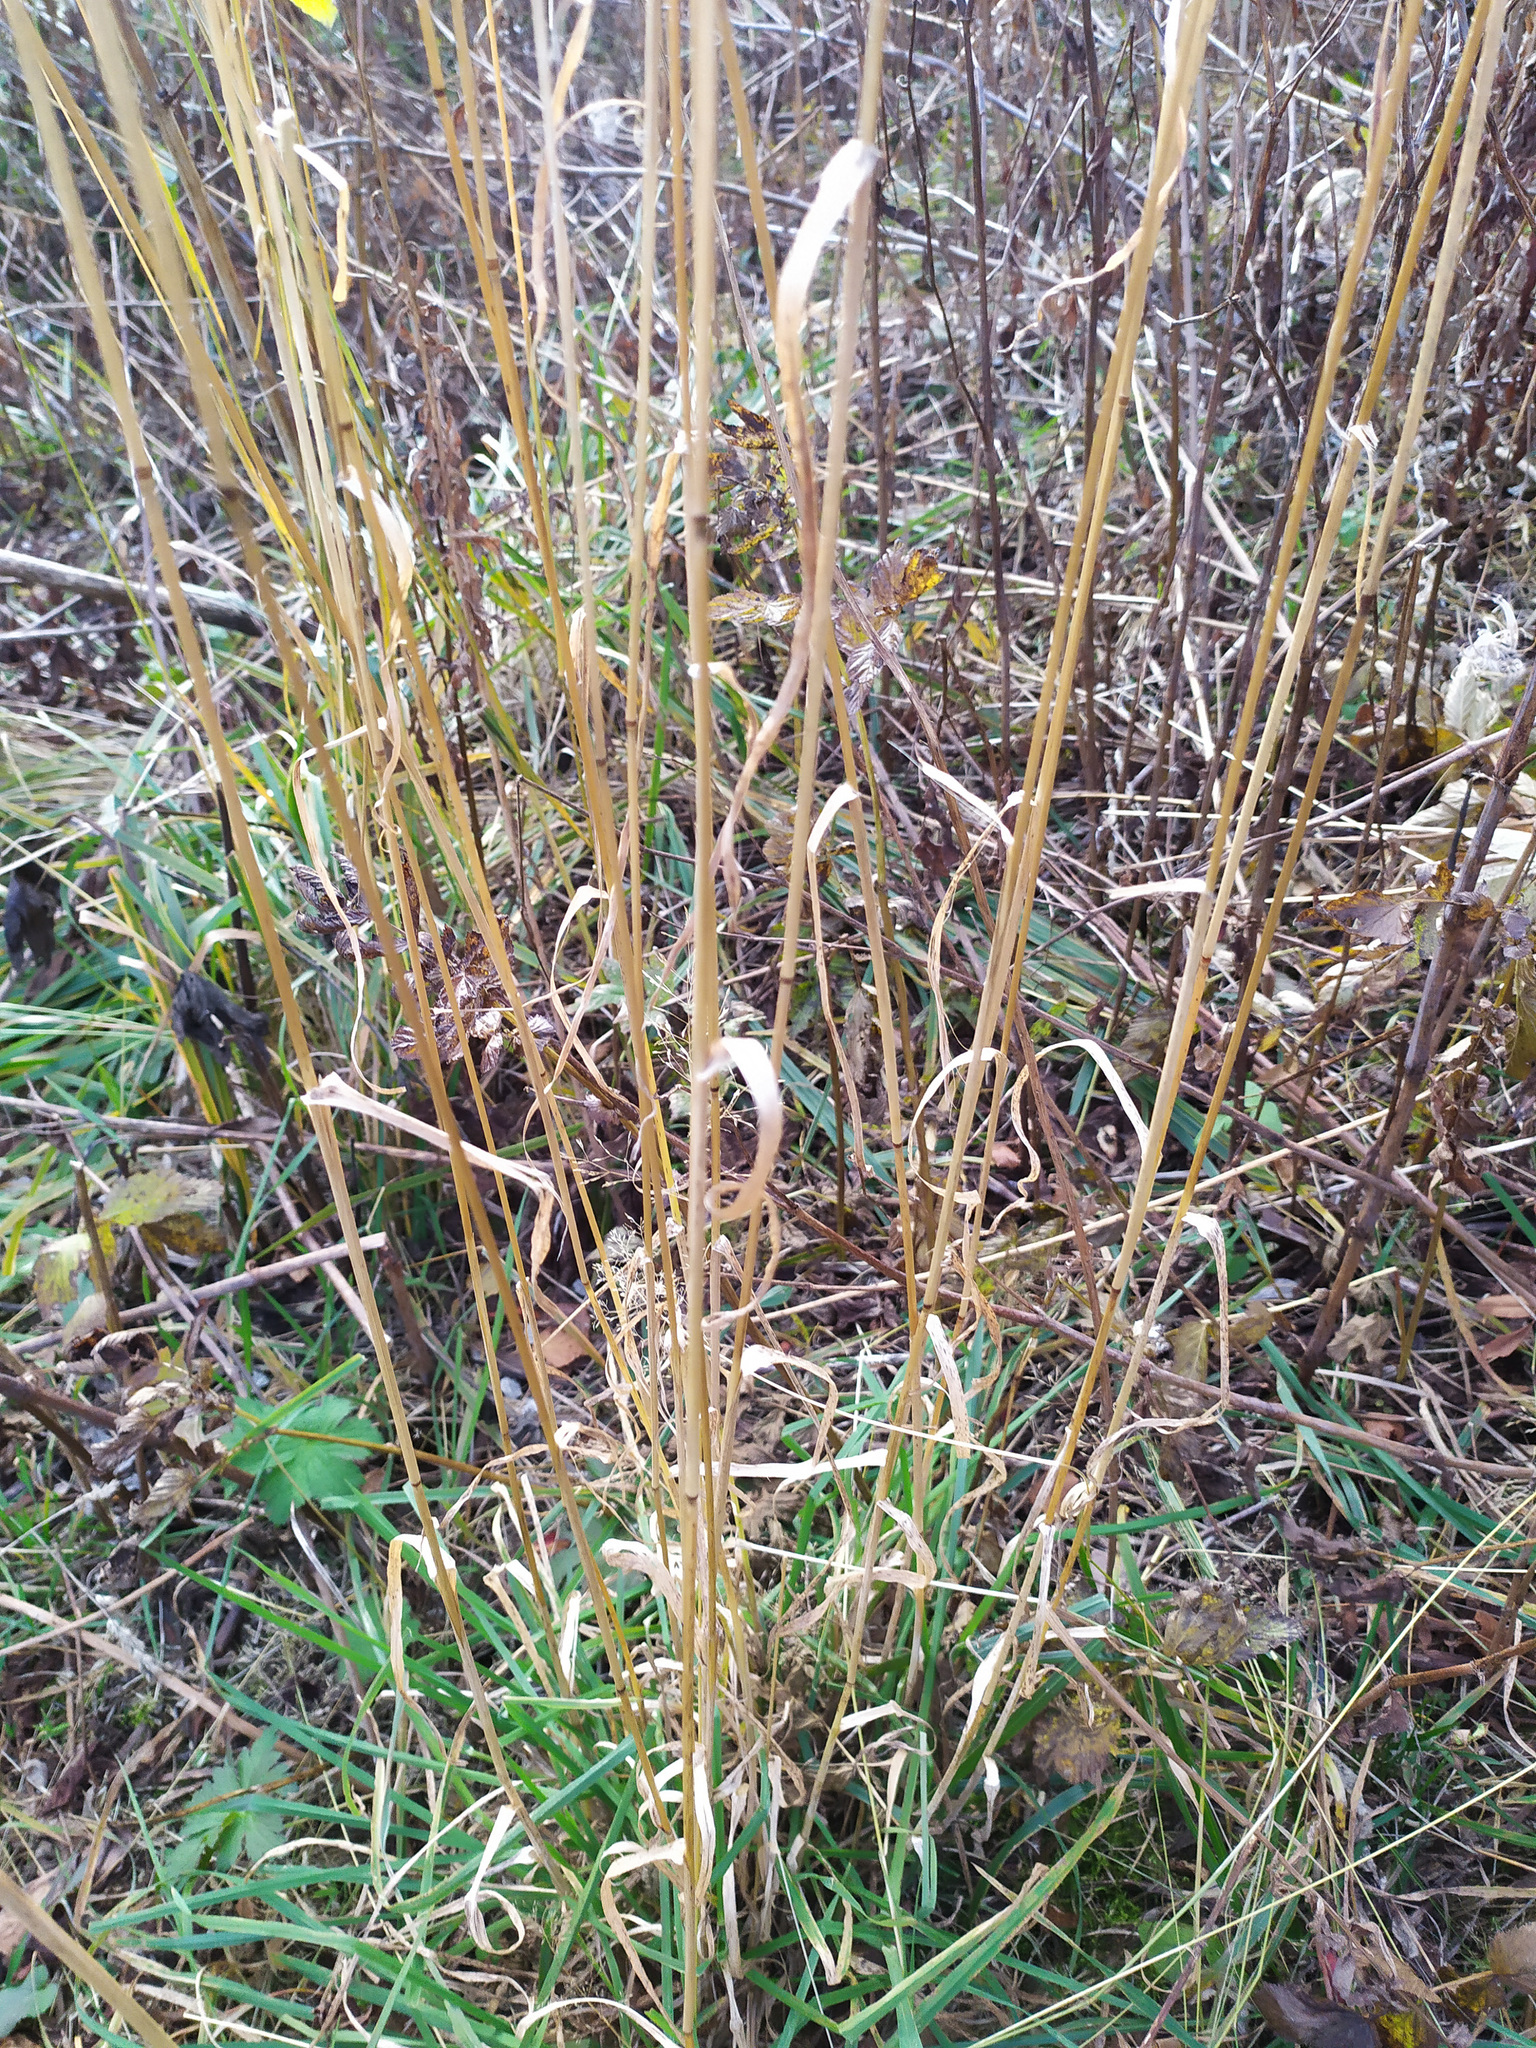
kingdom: Plantae
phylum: Tracheophyta
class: Liliopsida
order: Poales
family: Poaceae
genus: Dactylis
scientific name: Dactylis glomerata
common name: Orchardgrass
